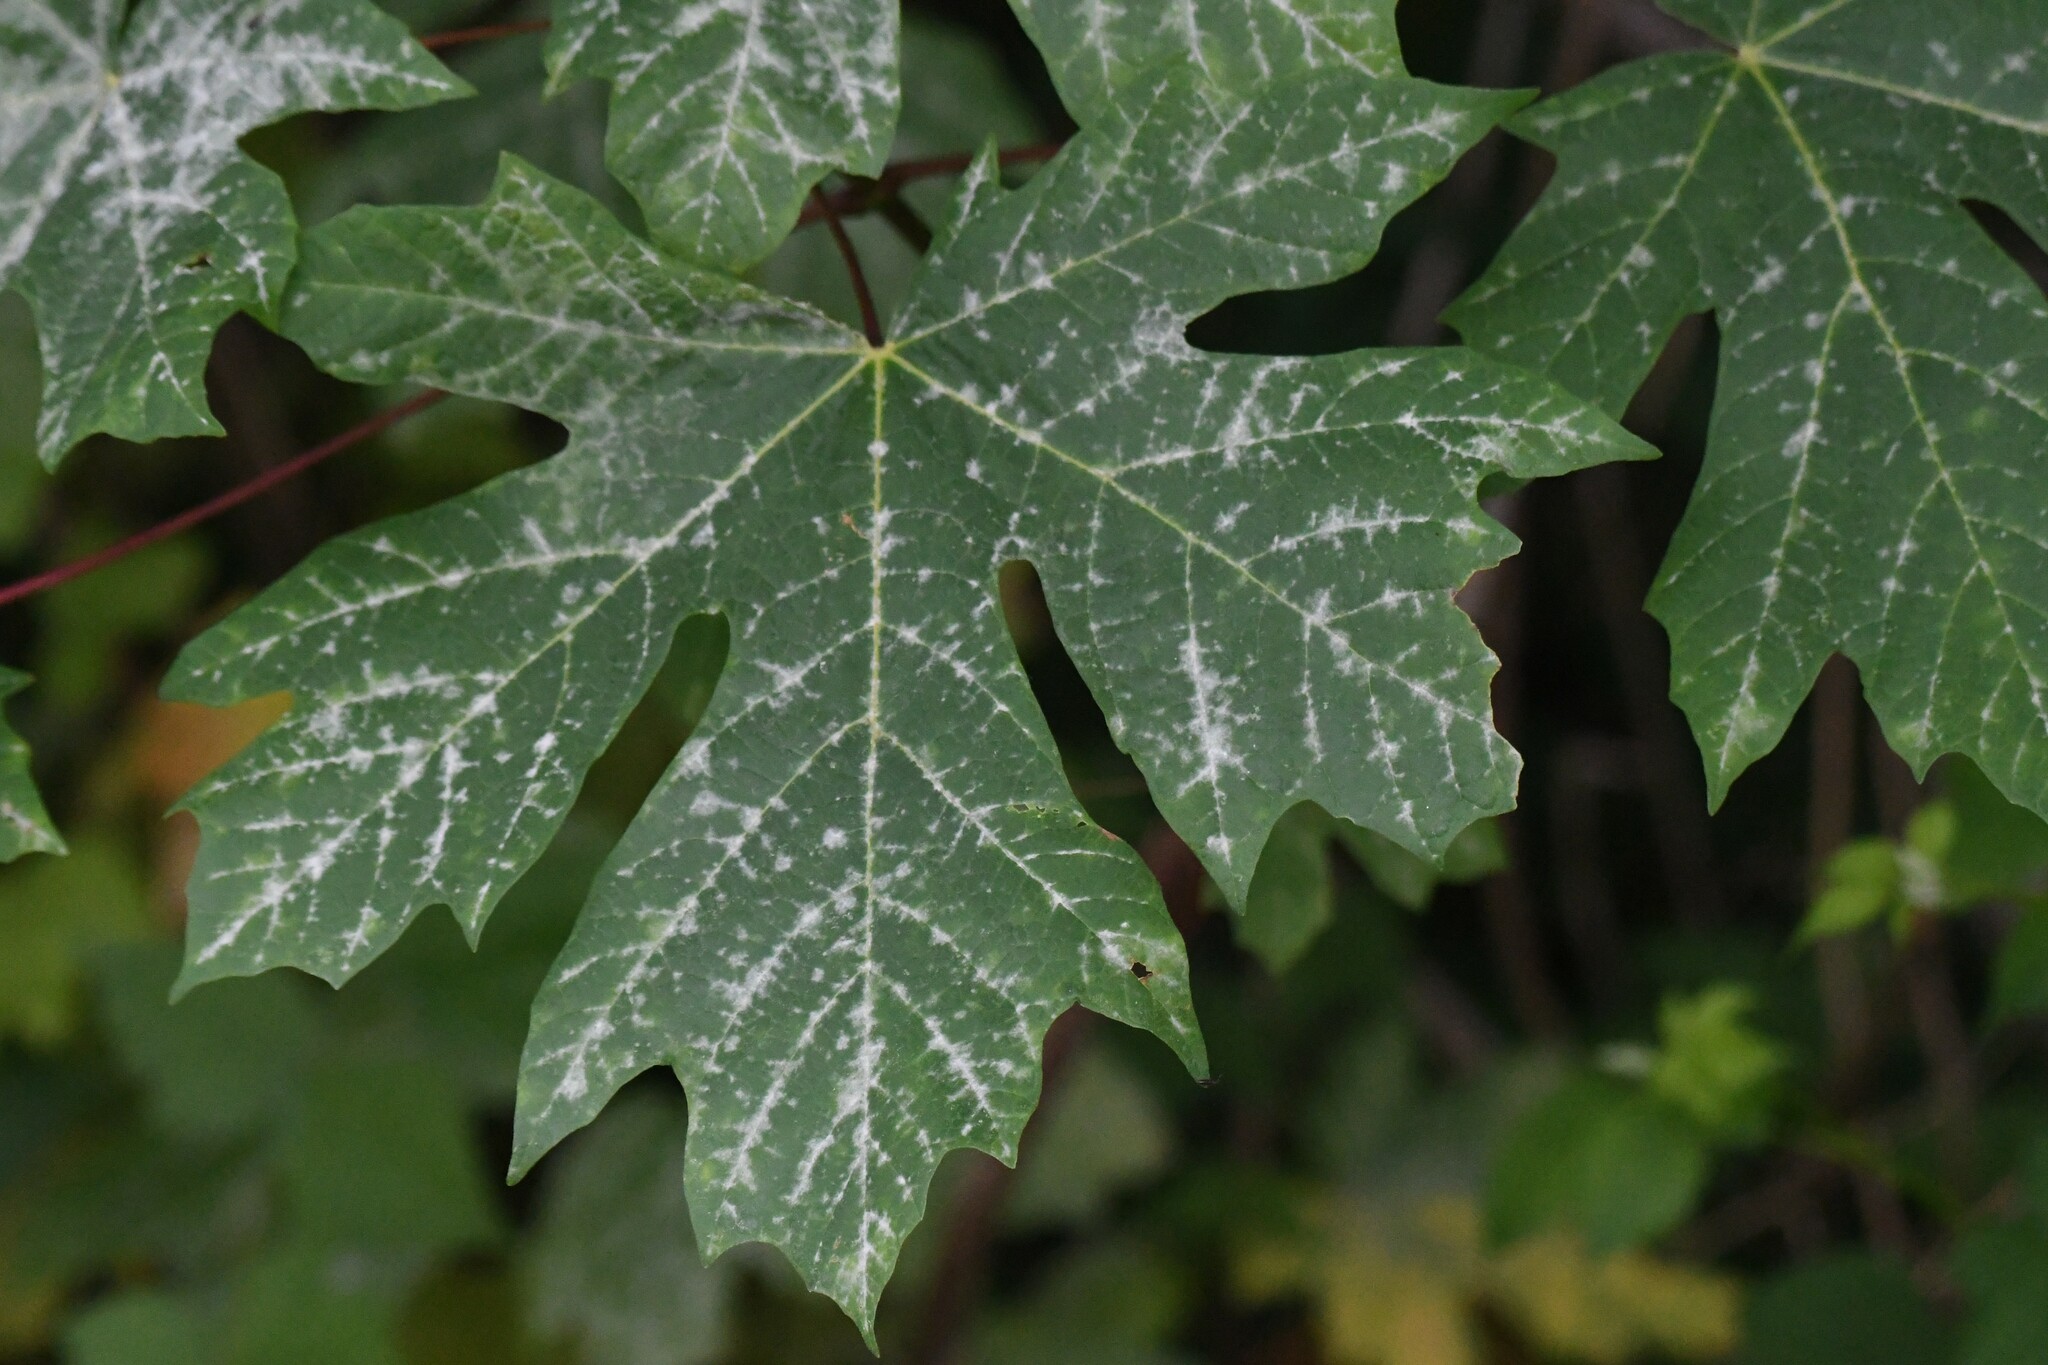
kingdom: Plantae
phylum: Tracheophyta
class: Magnoliopsida
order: Sapindales
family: Sapindaceae
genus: Acer
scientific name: Acer macrophyllum
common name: Oregon maple
